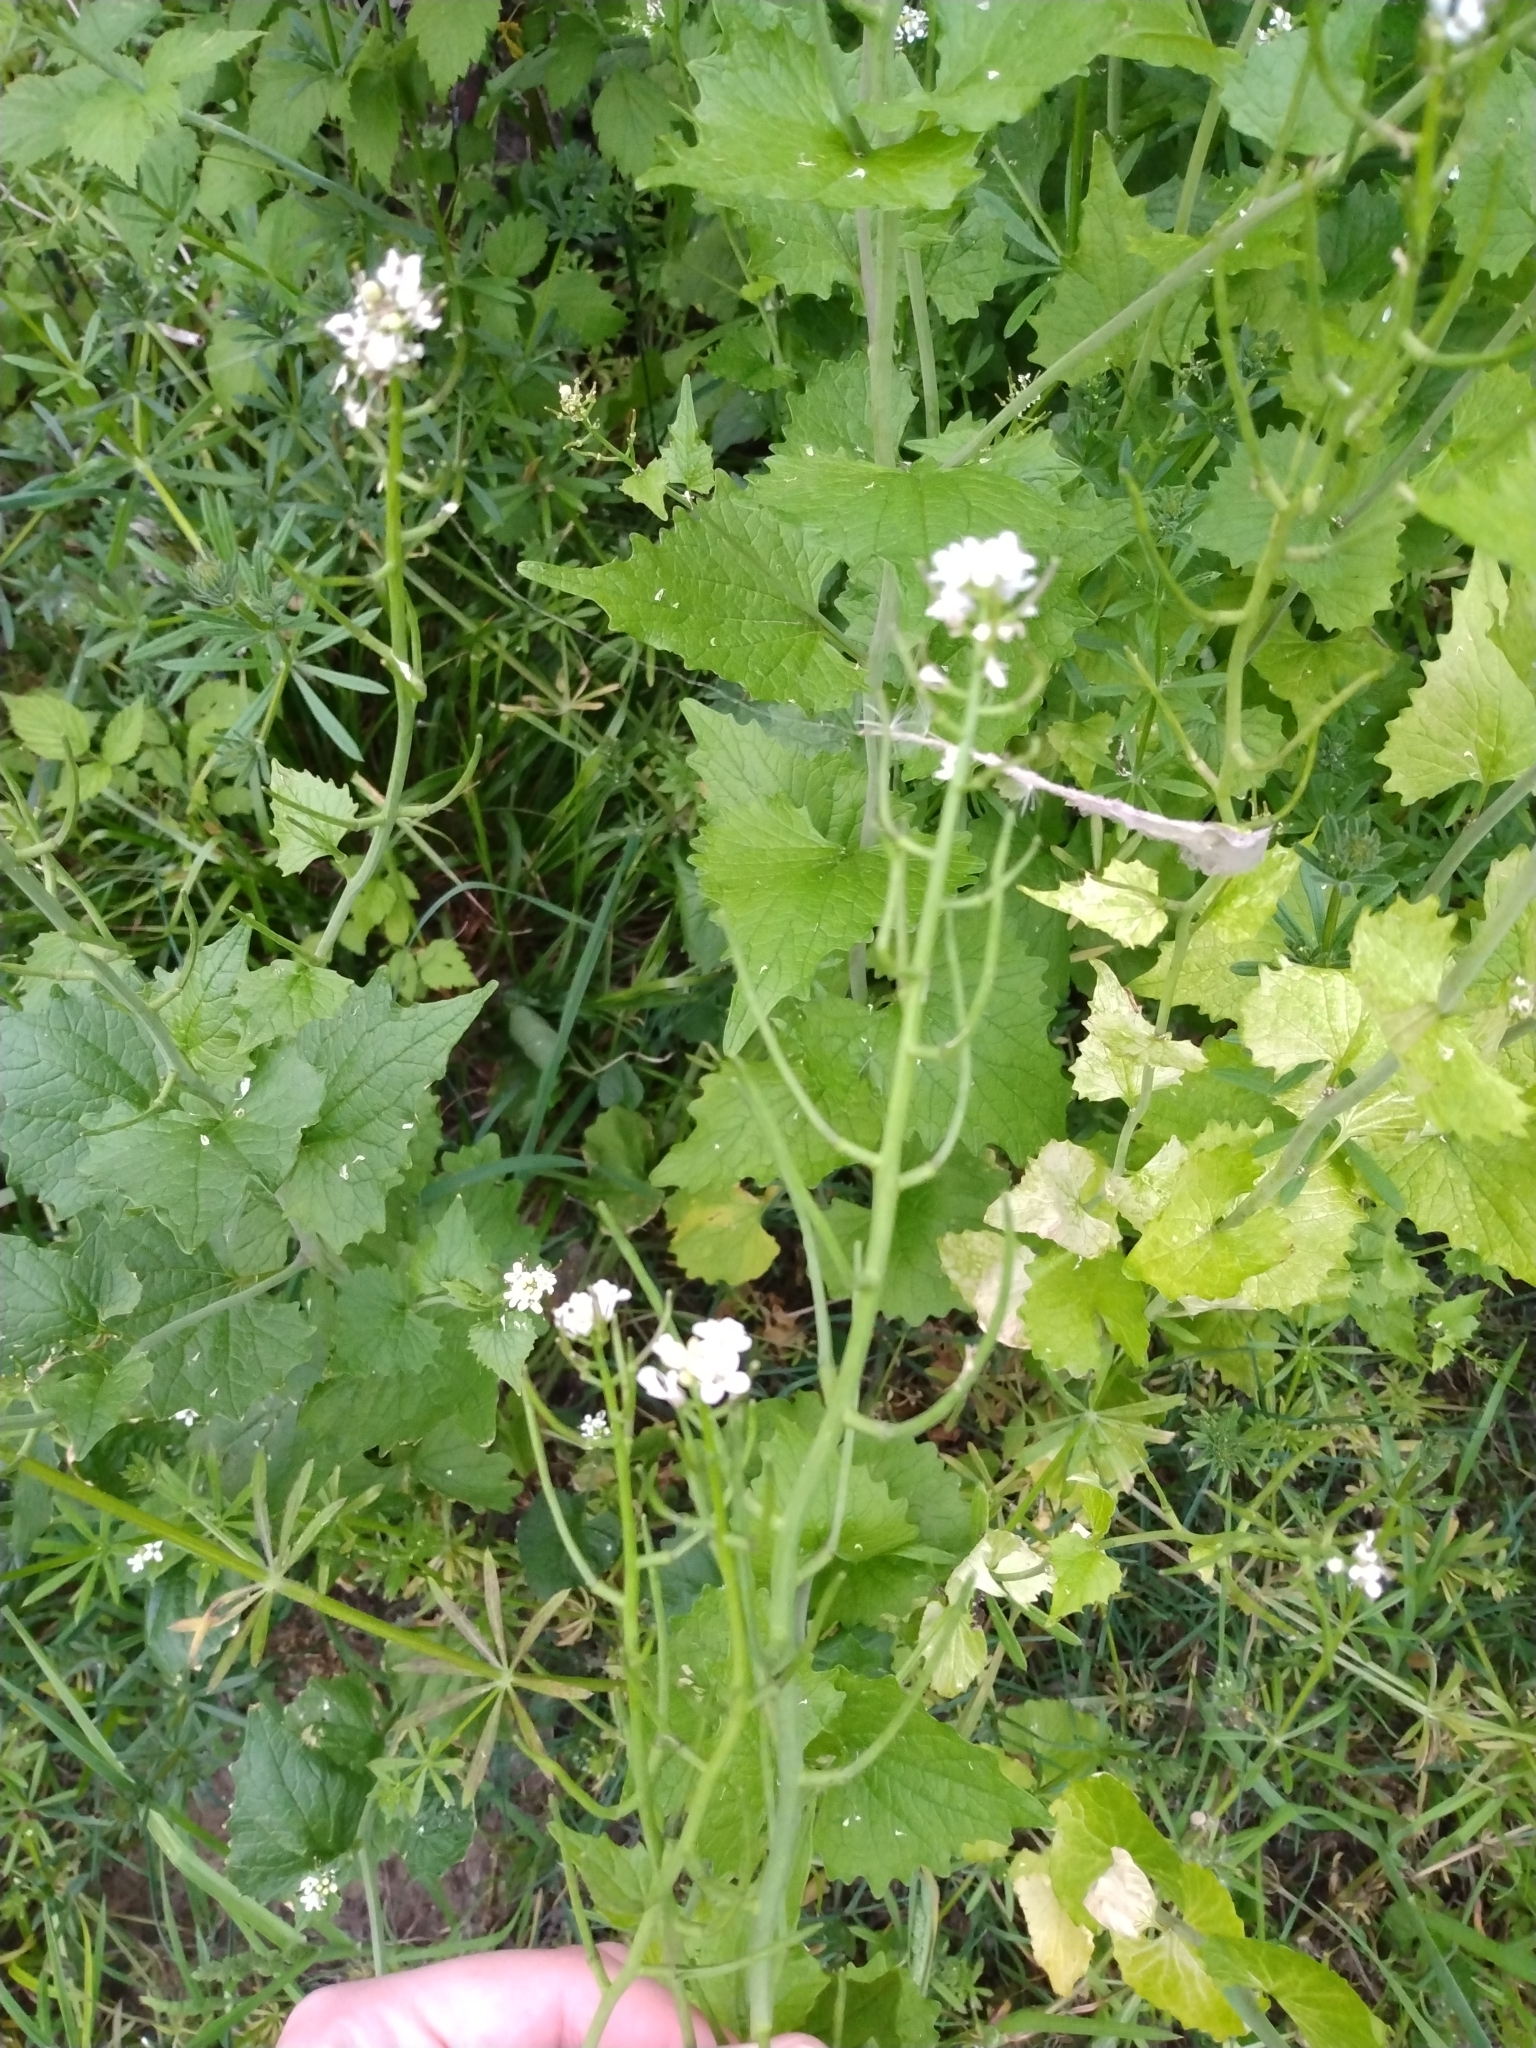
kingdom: Plantae
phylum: Tracheophyta
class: Magnoliopsida
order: Brassicales
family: Brassicaceae
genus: Alliaria
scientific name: Alliaria petiolata
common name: Garlic mustard
